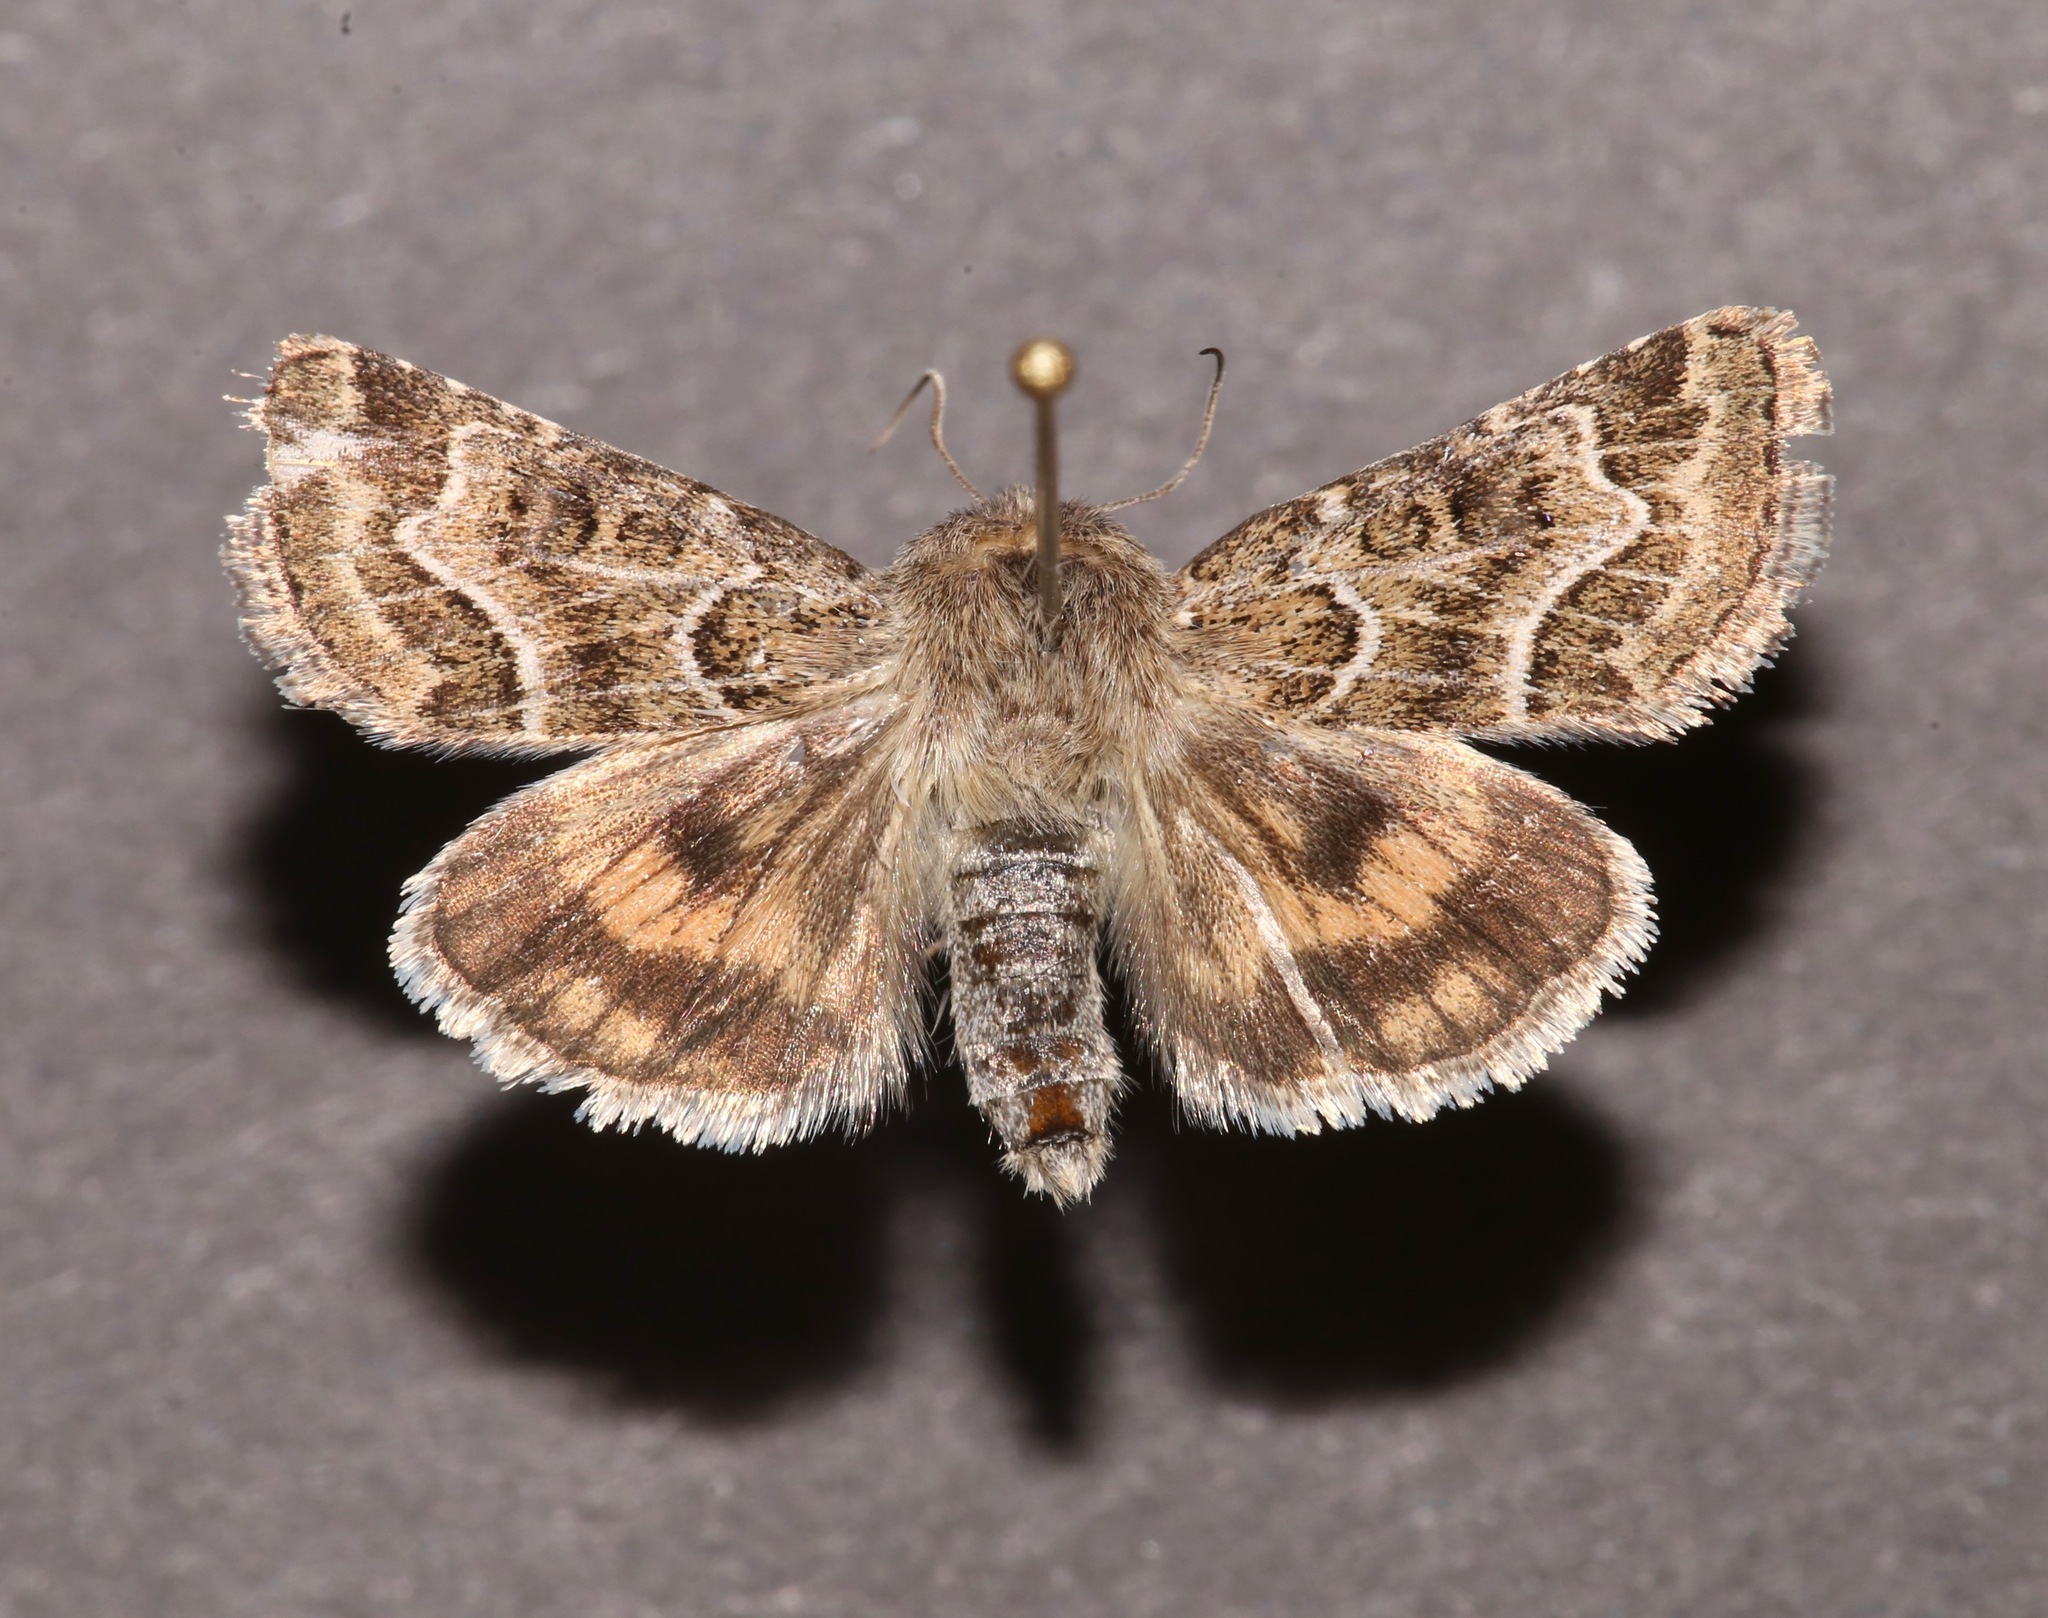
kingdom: Animalia
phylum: Arthropoda
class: Insecta
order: Lepidoptera
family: Noctuidae
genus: Schinia
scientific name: Schinia angulilinea
